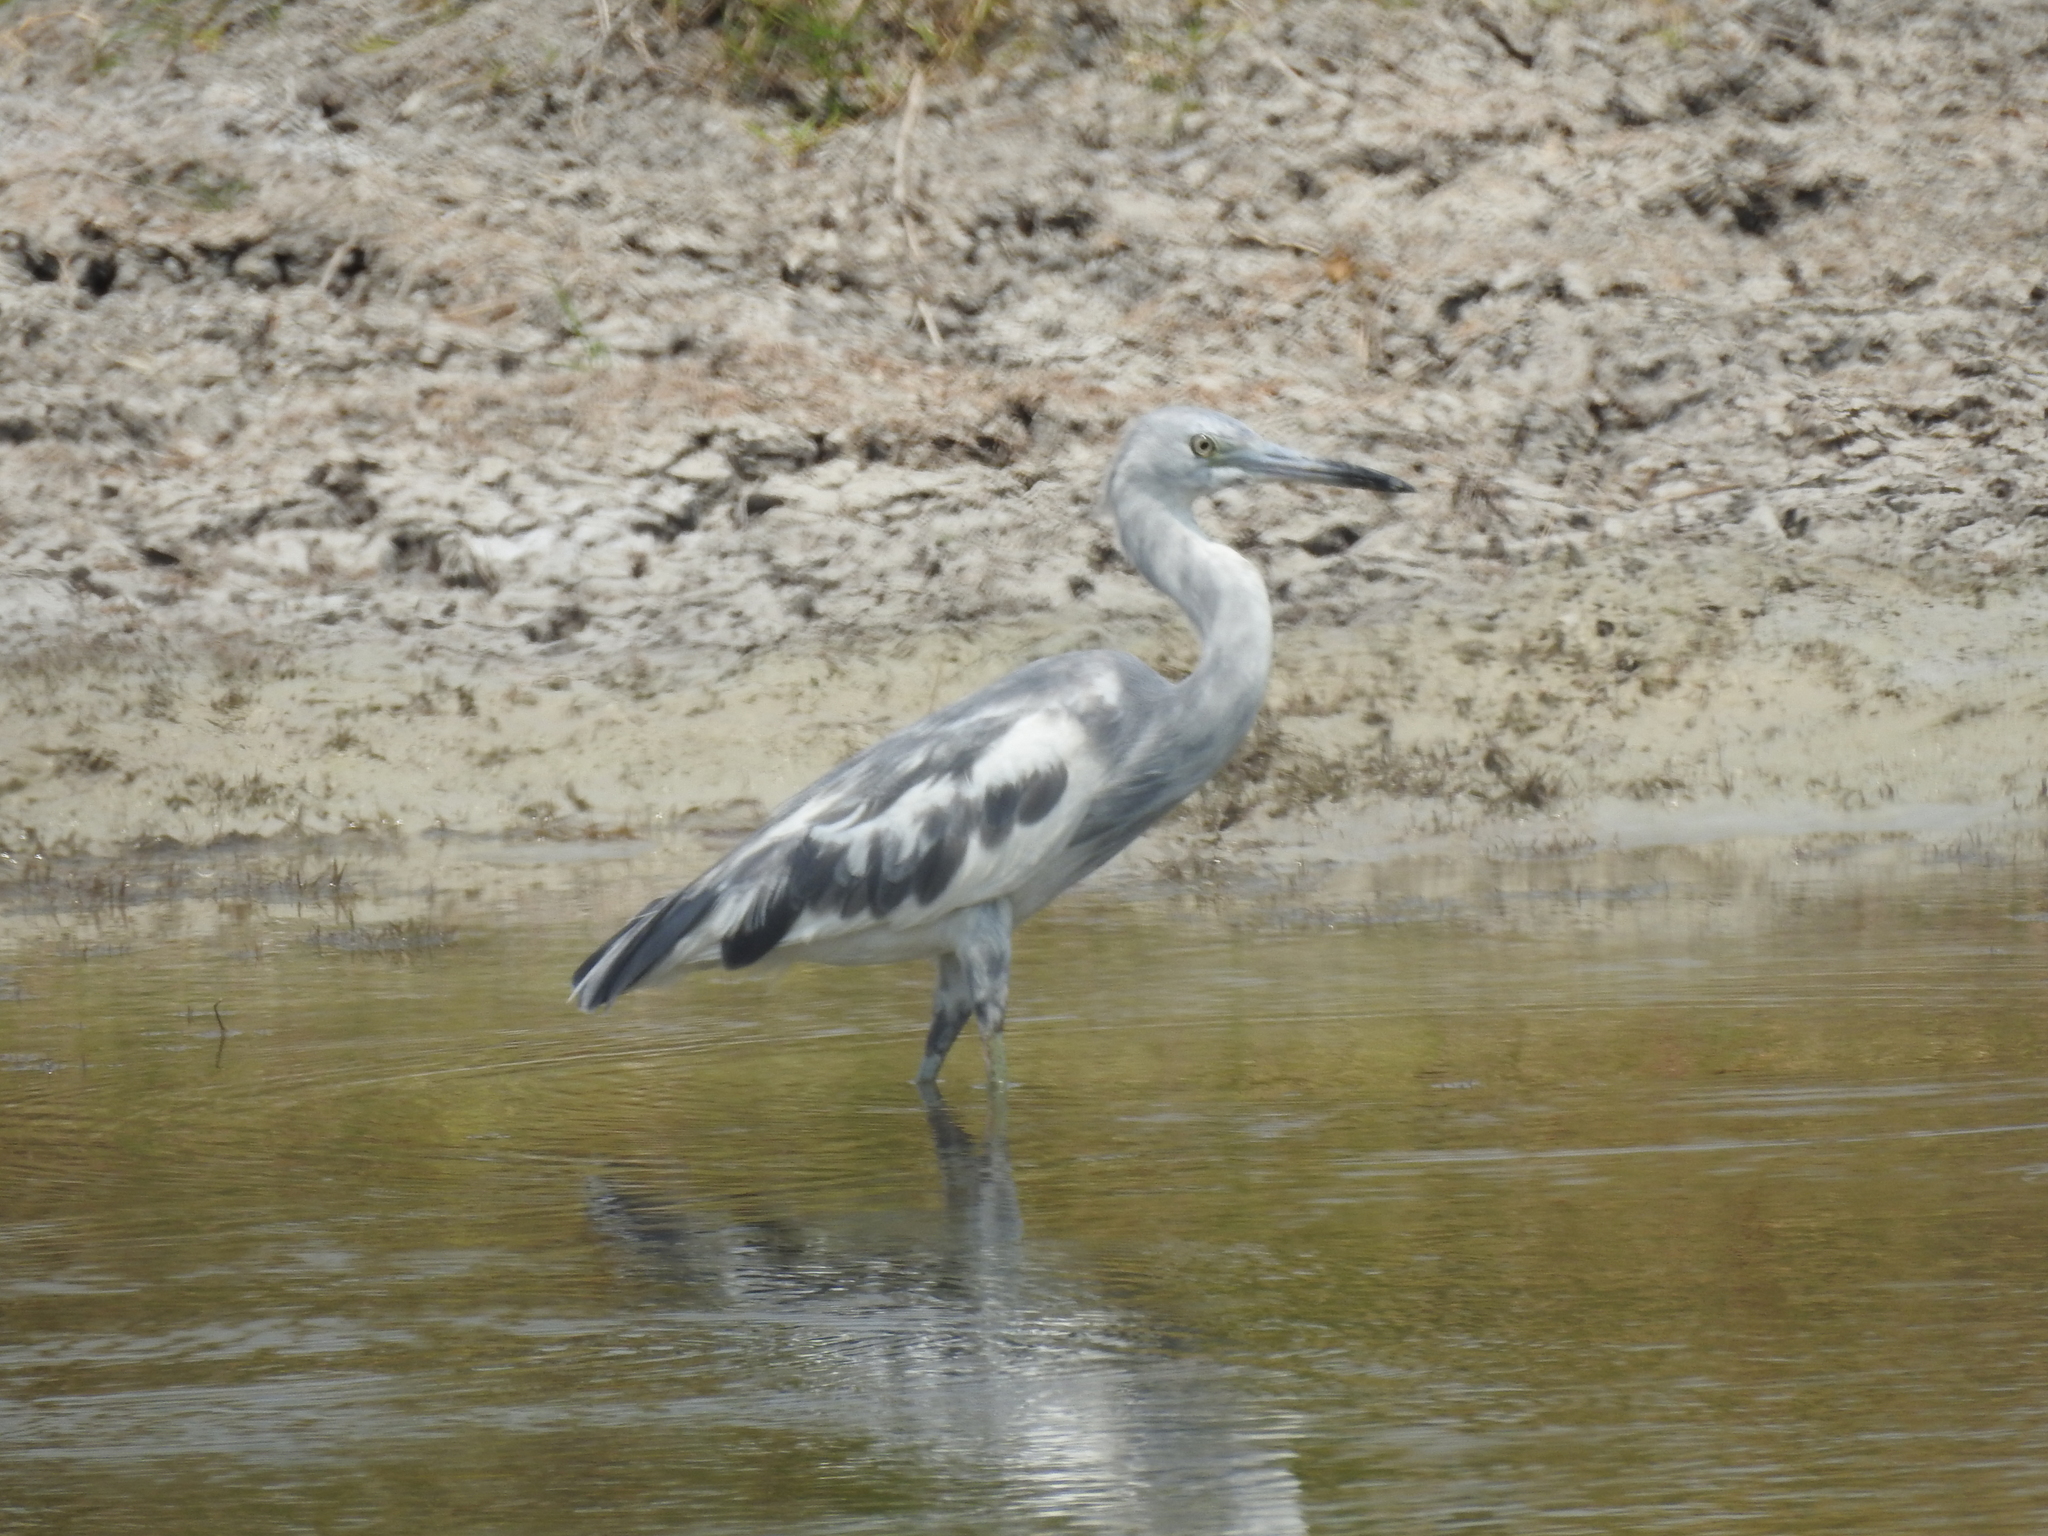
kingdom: Animalia
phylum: Chordata
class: Aves
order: Pelecaniformes
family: Ardeidae
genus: Egretta
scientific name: Egretta caerulea
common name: Little blue heron
